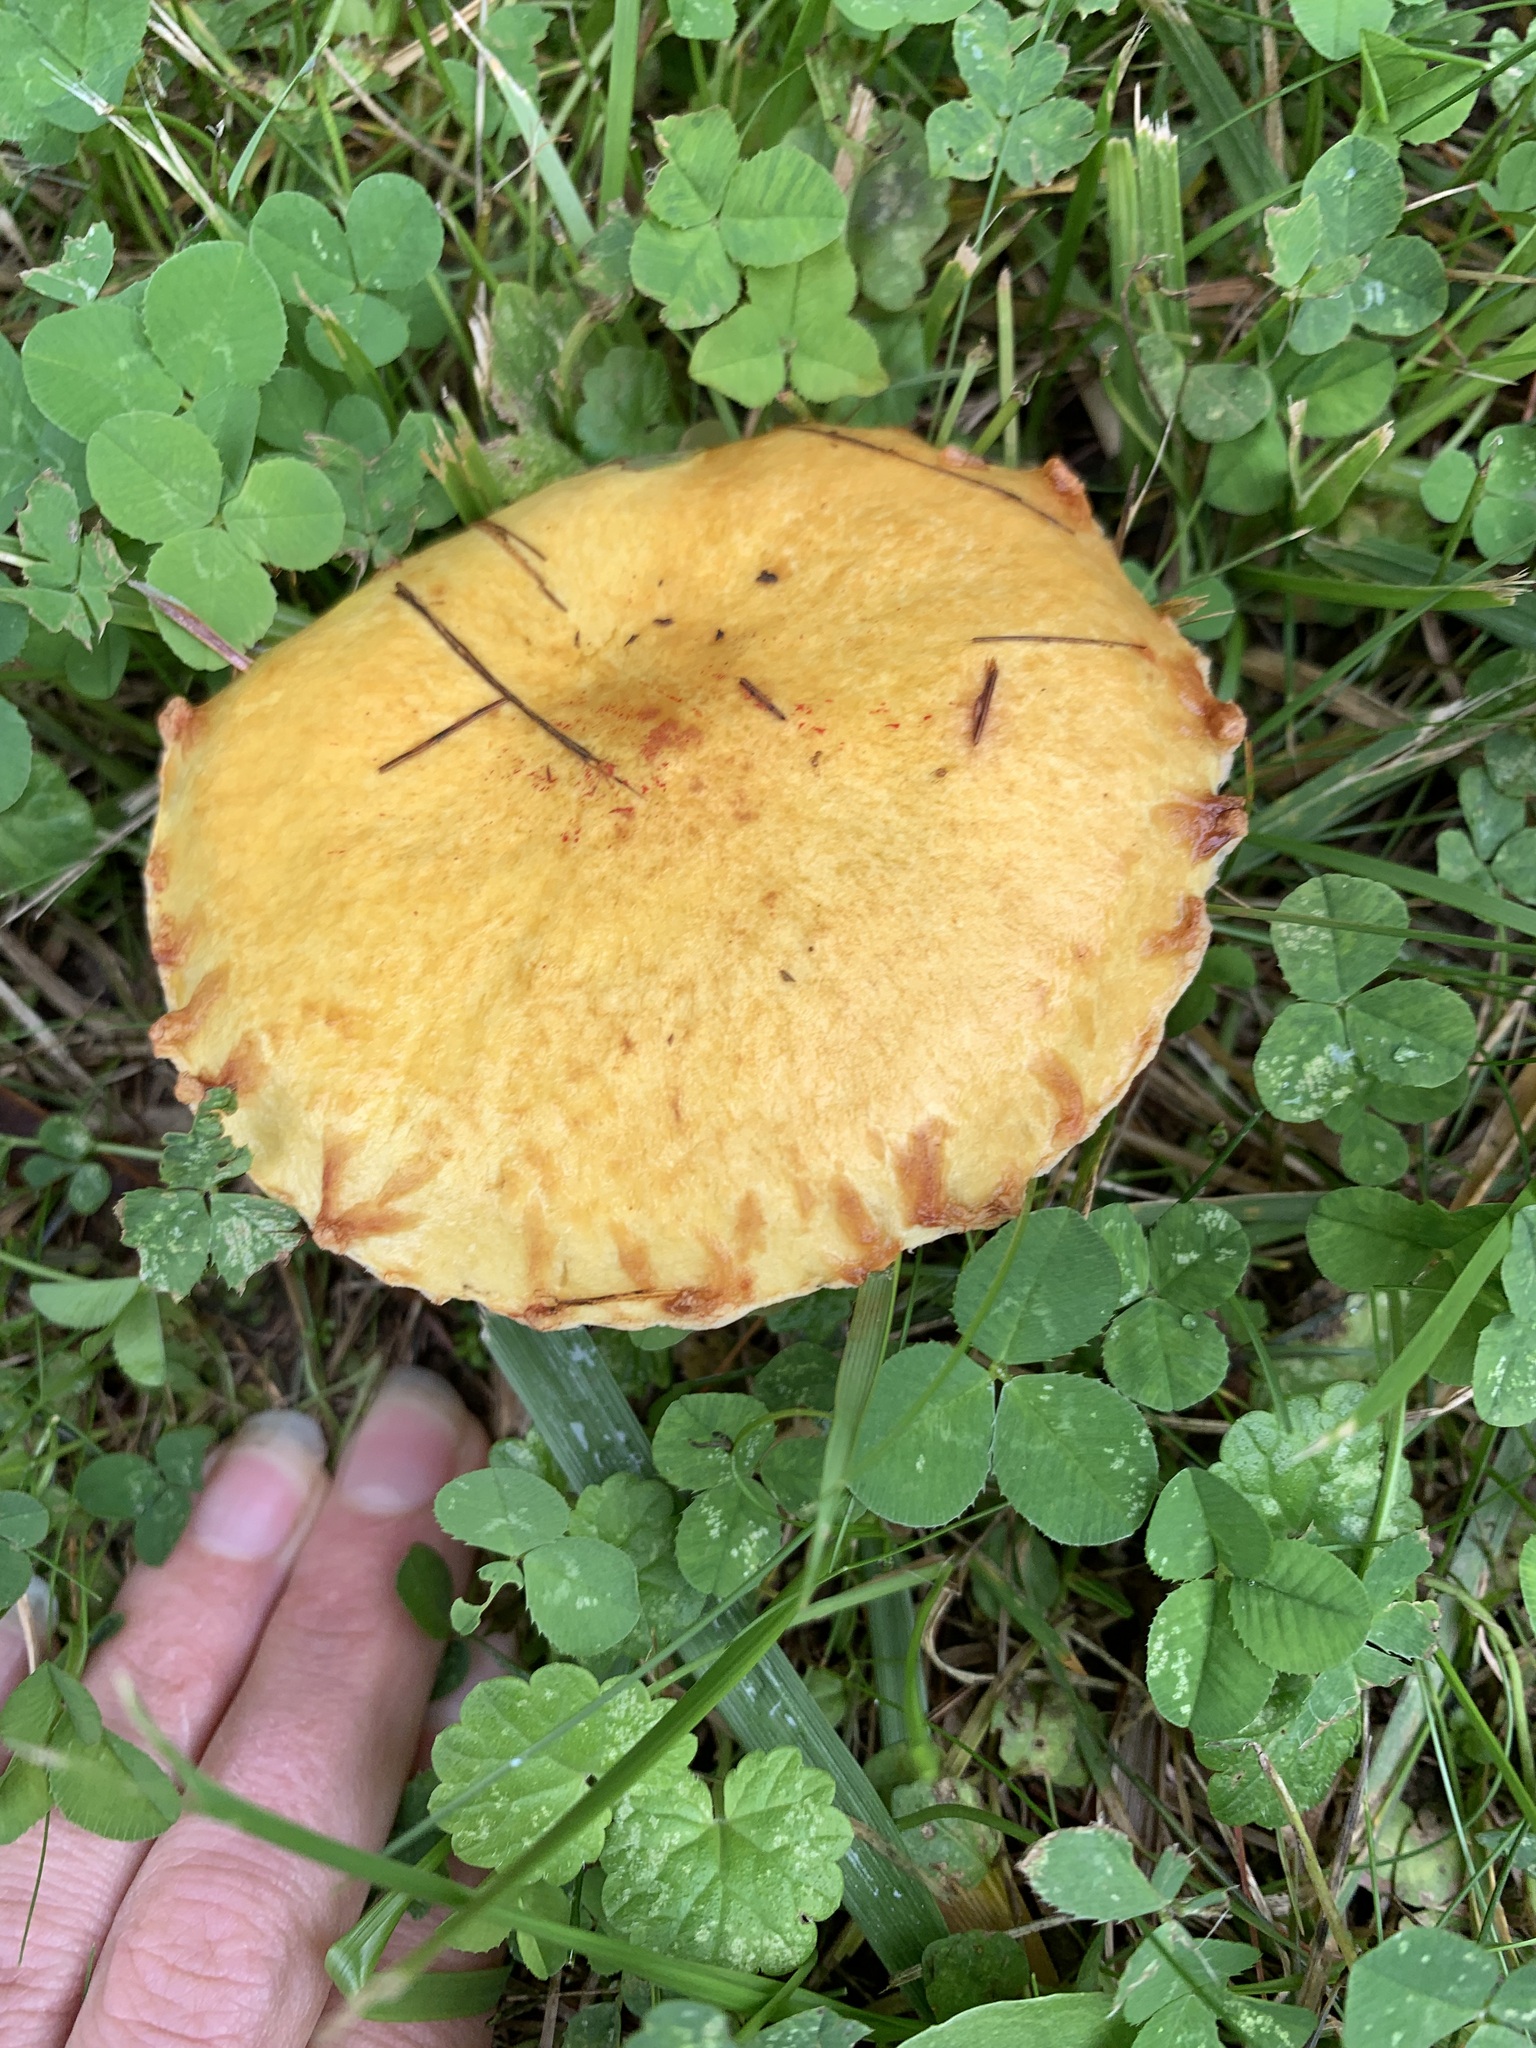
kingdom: Fungi
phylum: Basidiomycota
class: Agaricomycetes
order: Boletales
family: Suillaceae
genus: Suillus
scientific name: Suillus americanus
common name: Chicken fat mushroom
